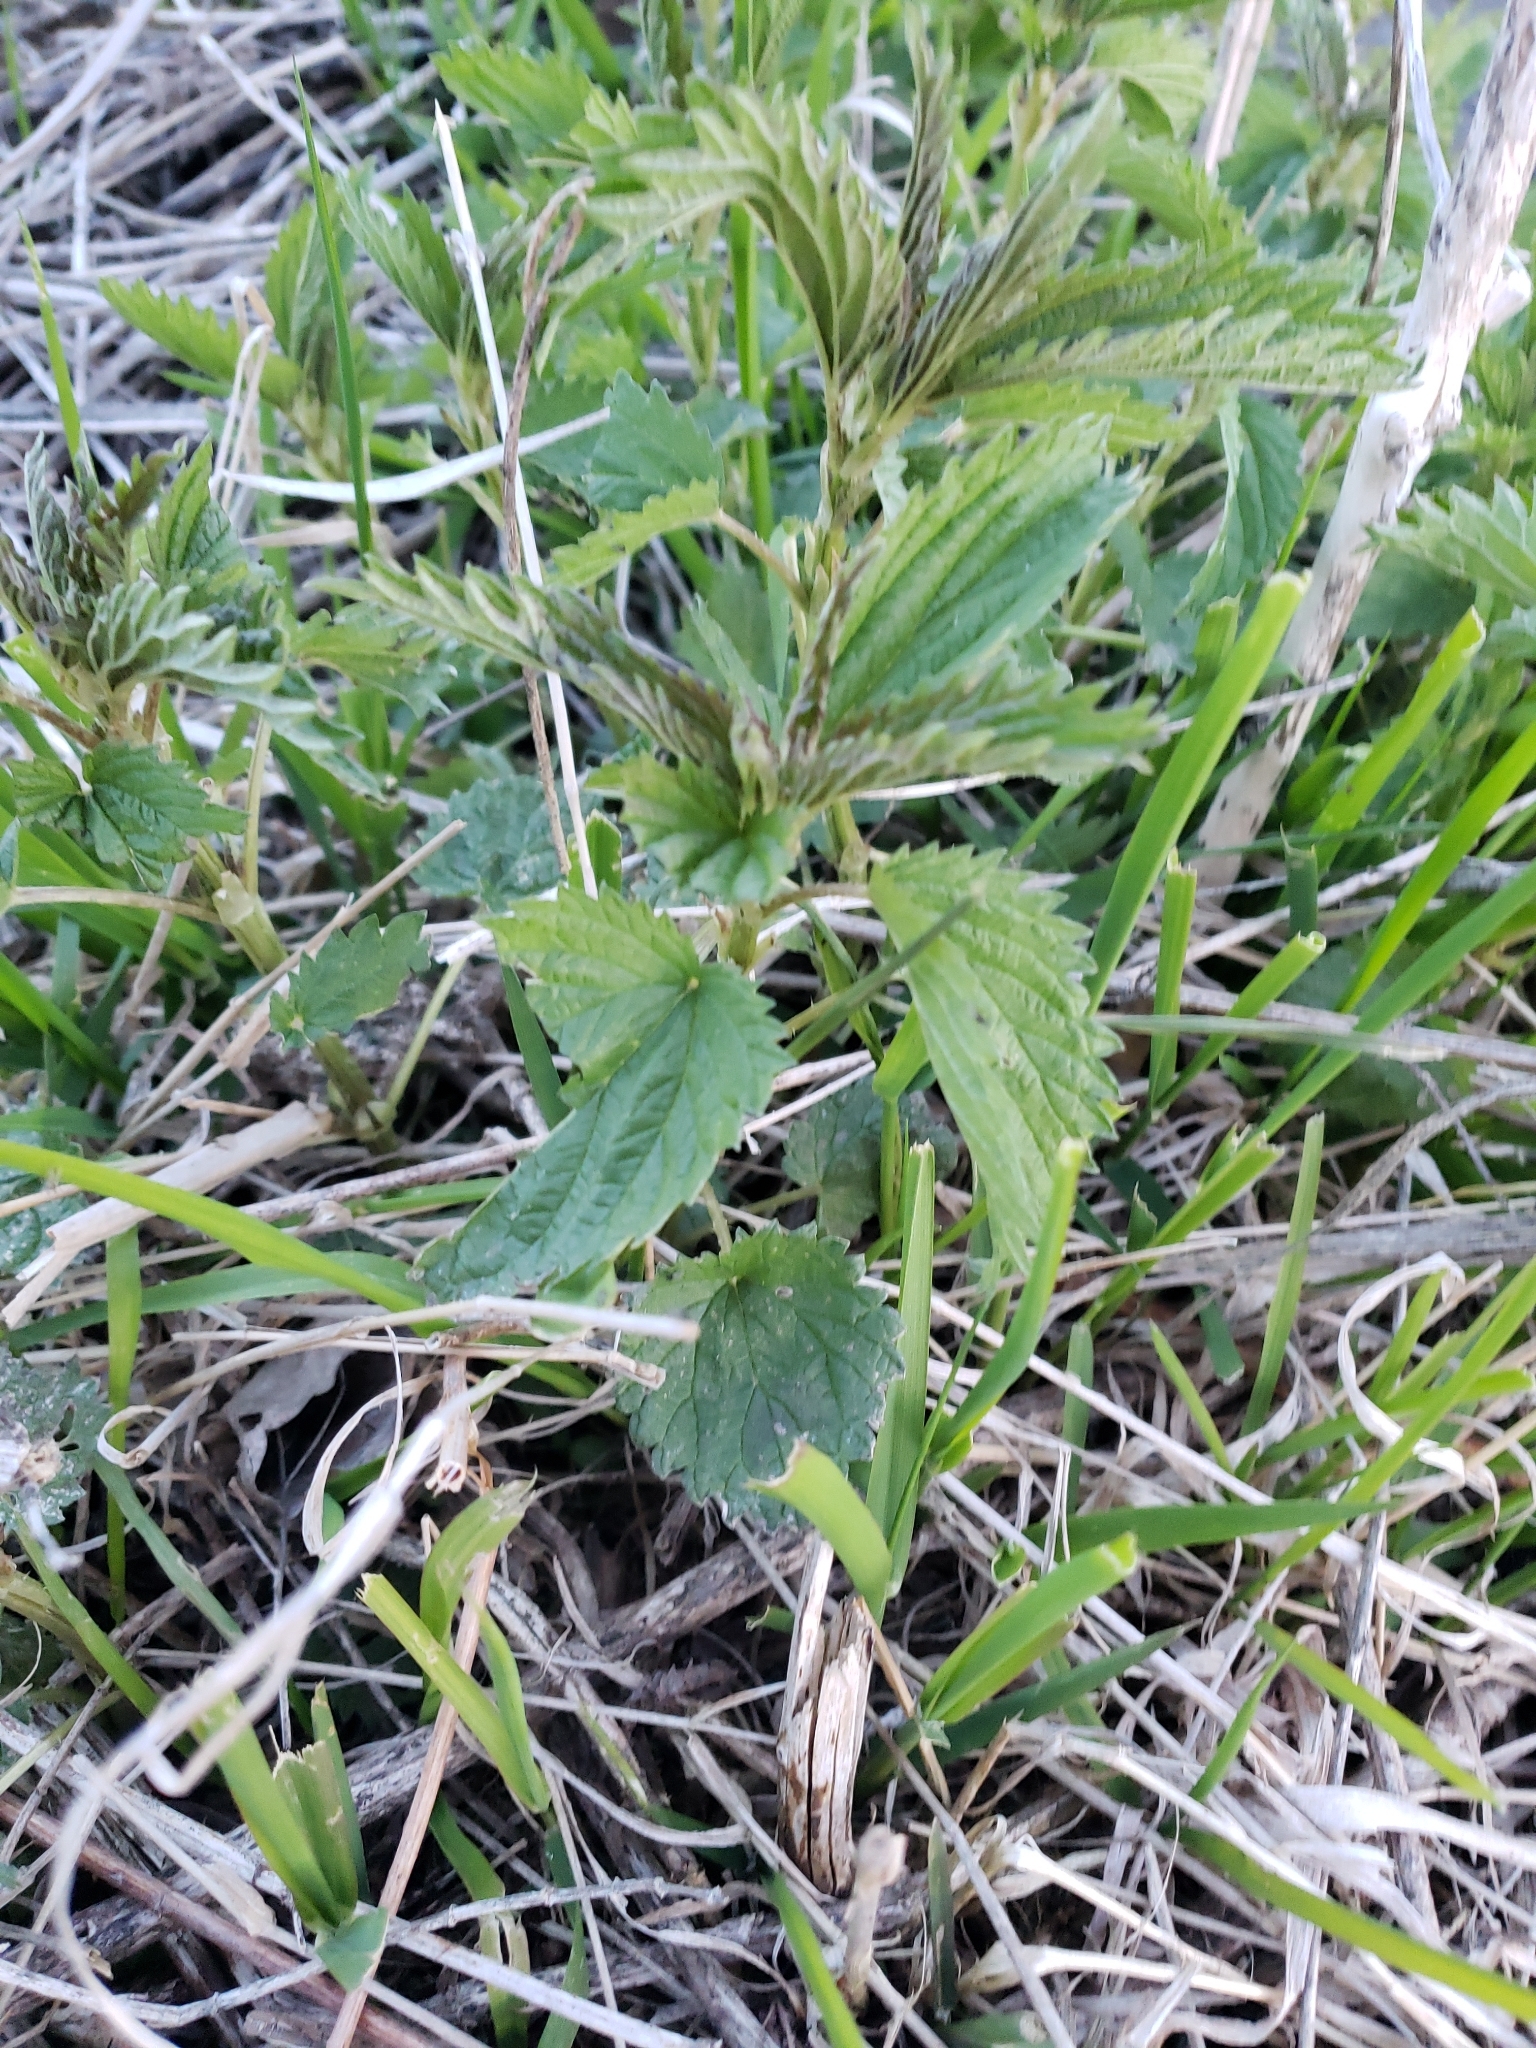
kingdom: Plantae
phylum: Tracheophyta
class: Magnoliopsida
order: Rosales
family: Urticaceae
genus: Urtica
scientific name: Urtica dioica
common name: Common nettle
